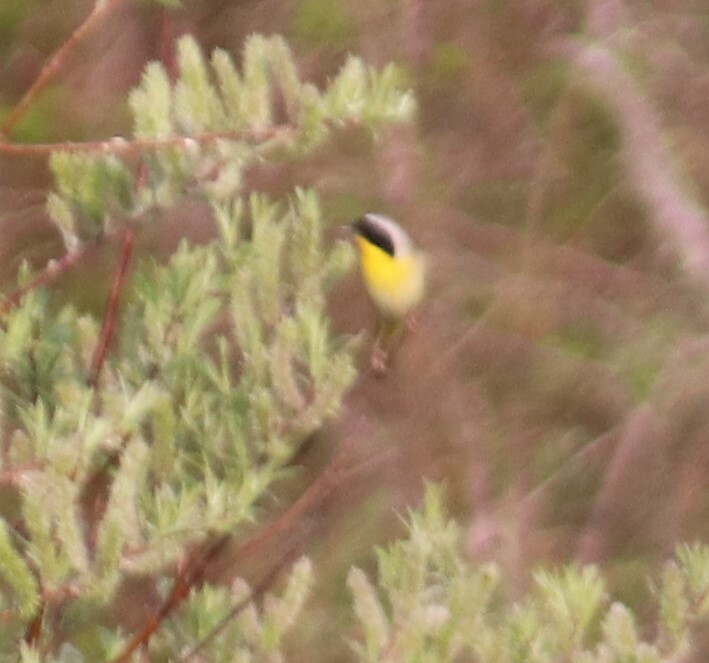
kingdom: Animalia
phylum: Chordata
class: Aves
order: Passeriformes
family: Parulidae
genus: Geothlypis
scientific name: Geothlypis trichas
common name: Common yellowthroat
